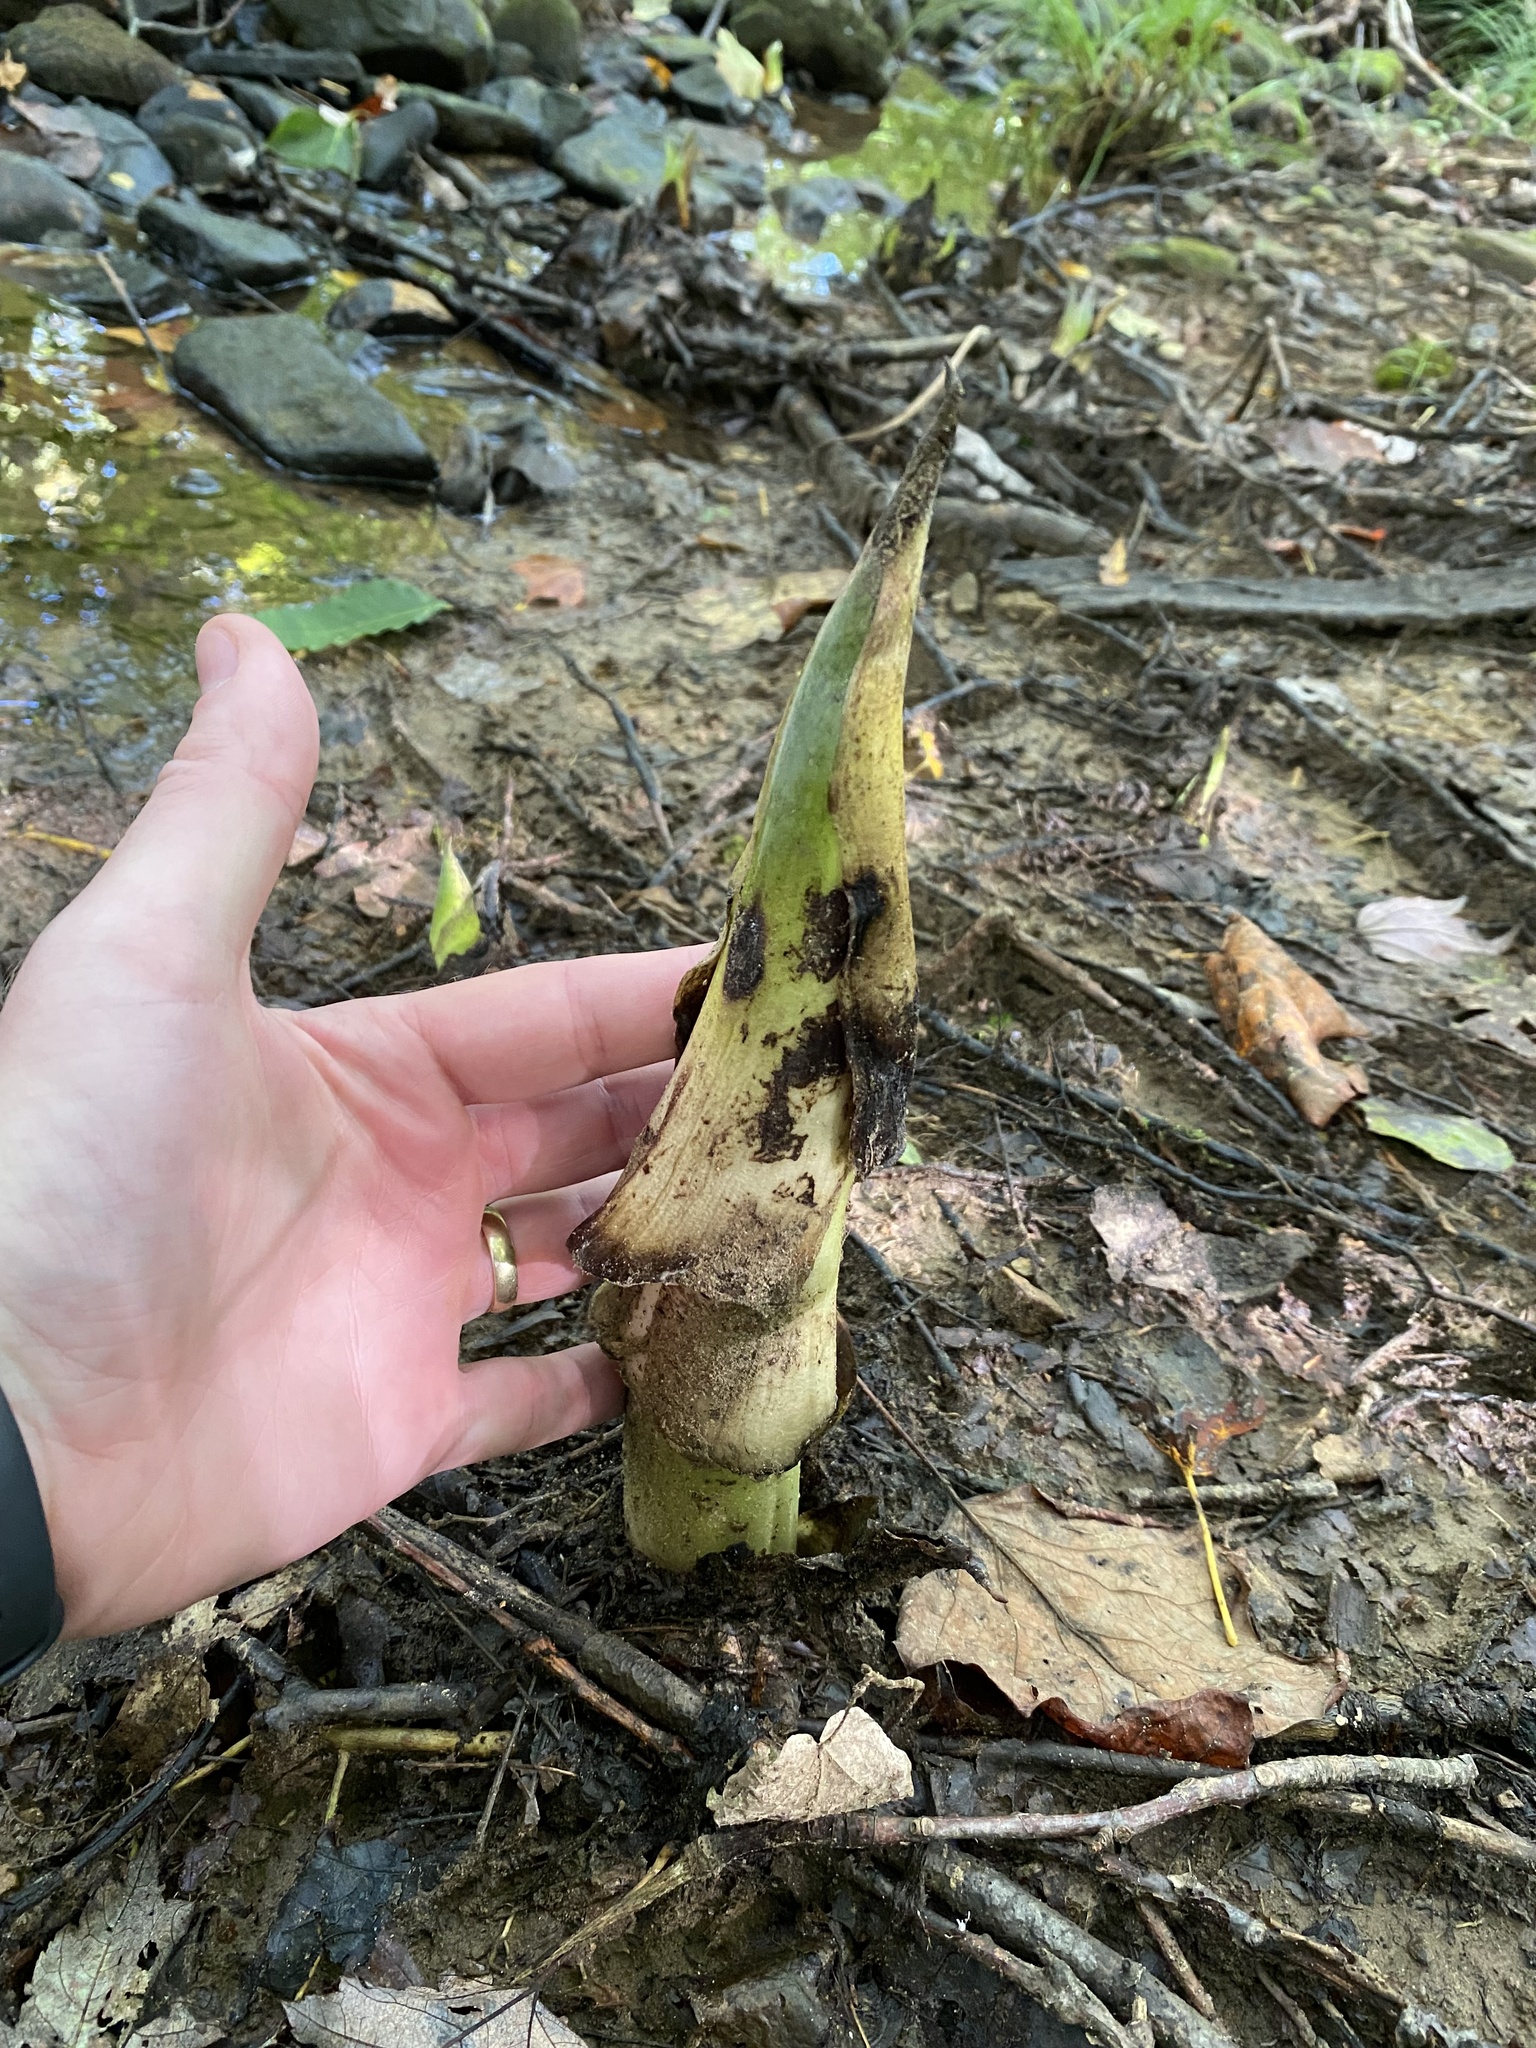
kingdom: Plantae
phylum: Tracheophyta
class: Liliopsida
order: Alismatales
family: Araceae
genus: Symplocarpus
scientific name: Symplocarpus foetidus
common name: Eastern skunk cabbage
